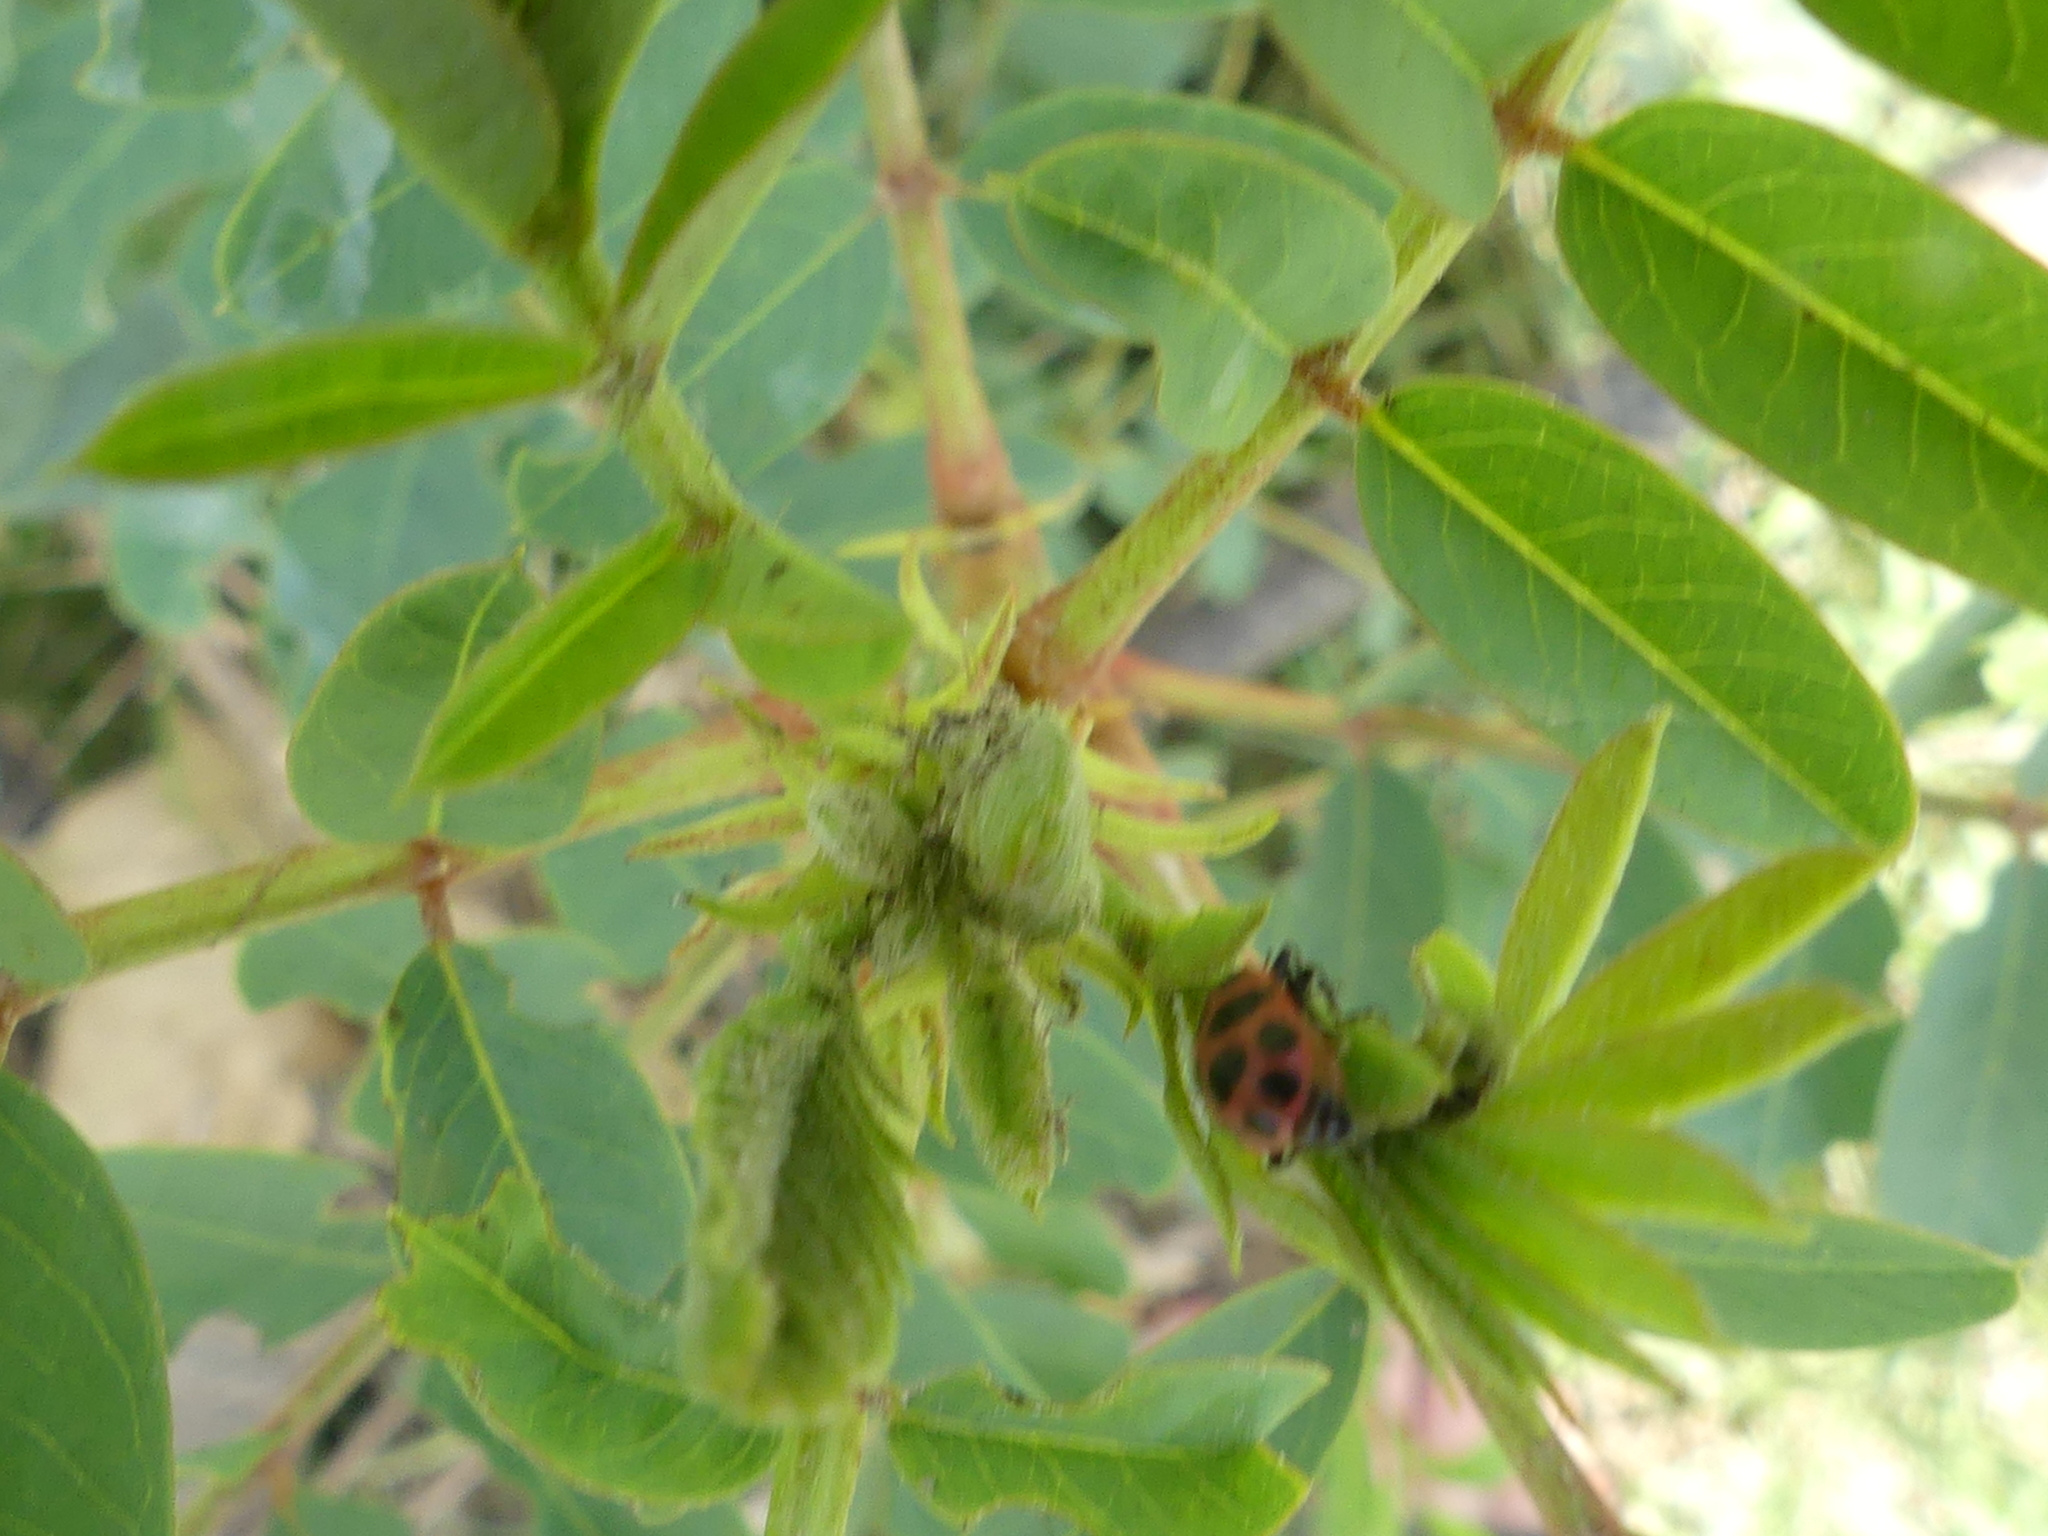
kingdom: Animalia
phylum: Arthropoda
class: Insecta
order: Coleoptera
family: Coccinellidae
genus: Coleomegilla
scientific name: Coleomegilla maculata
